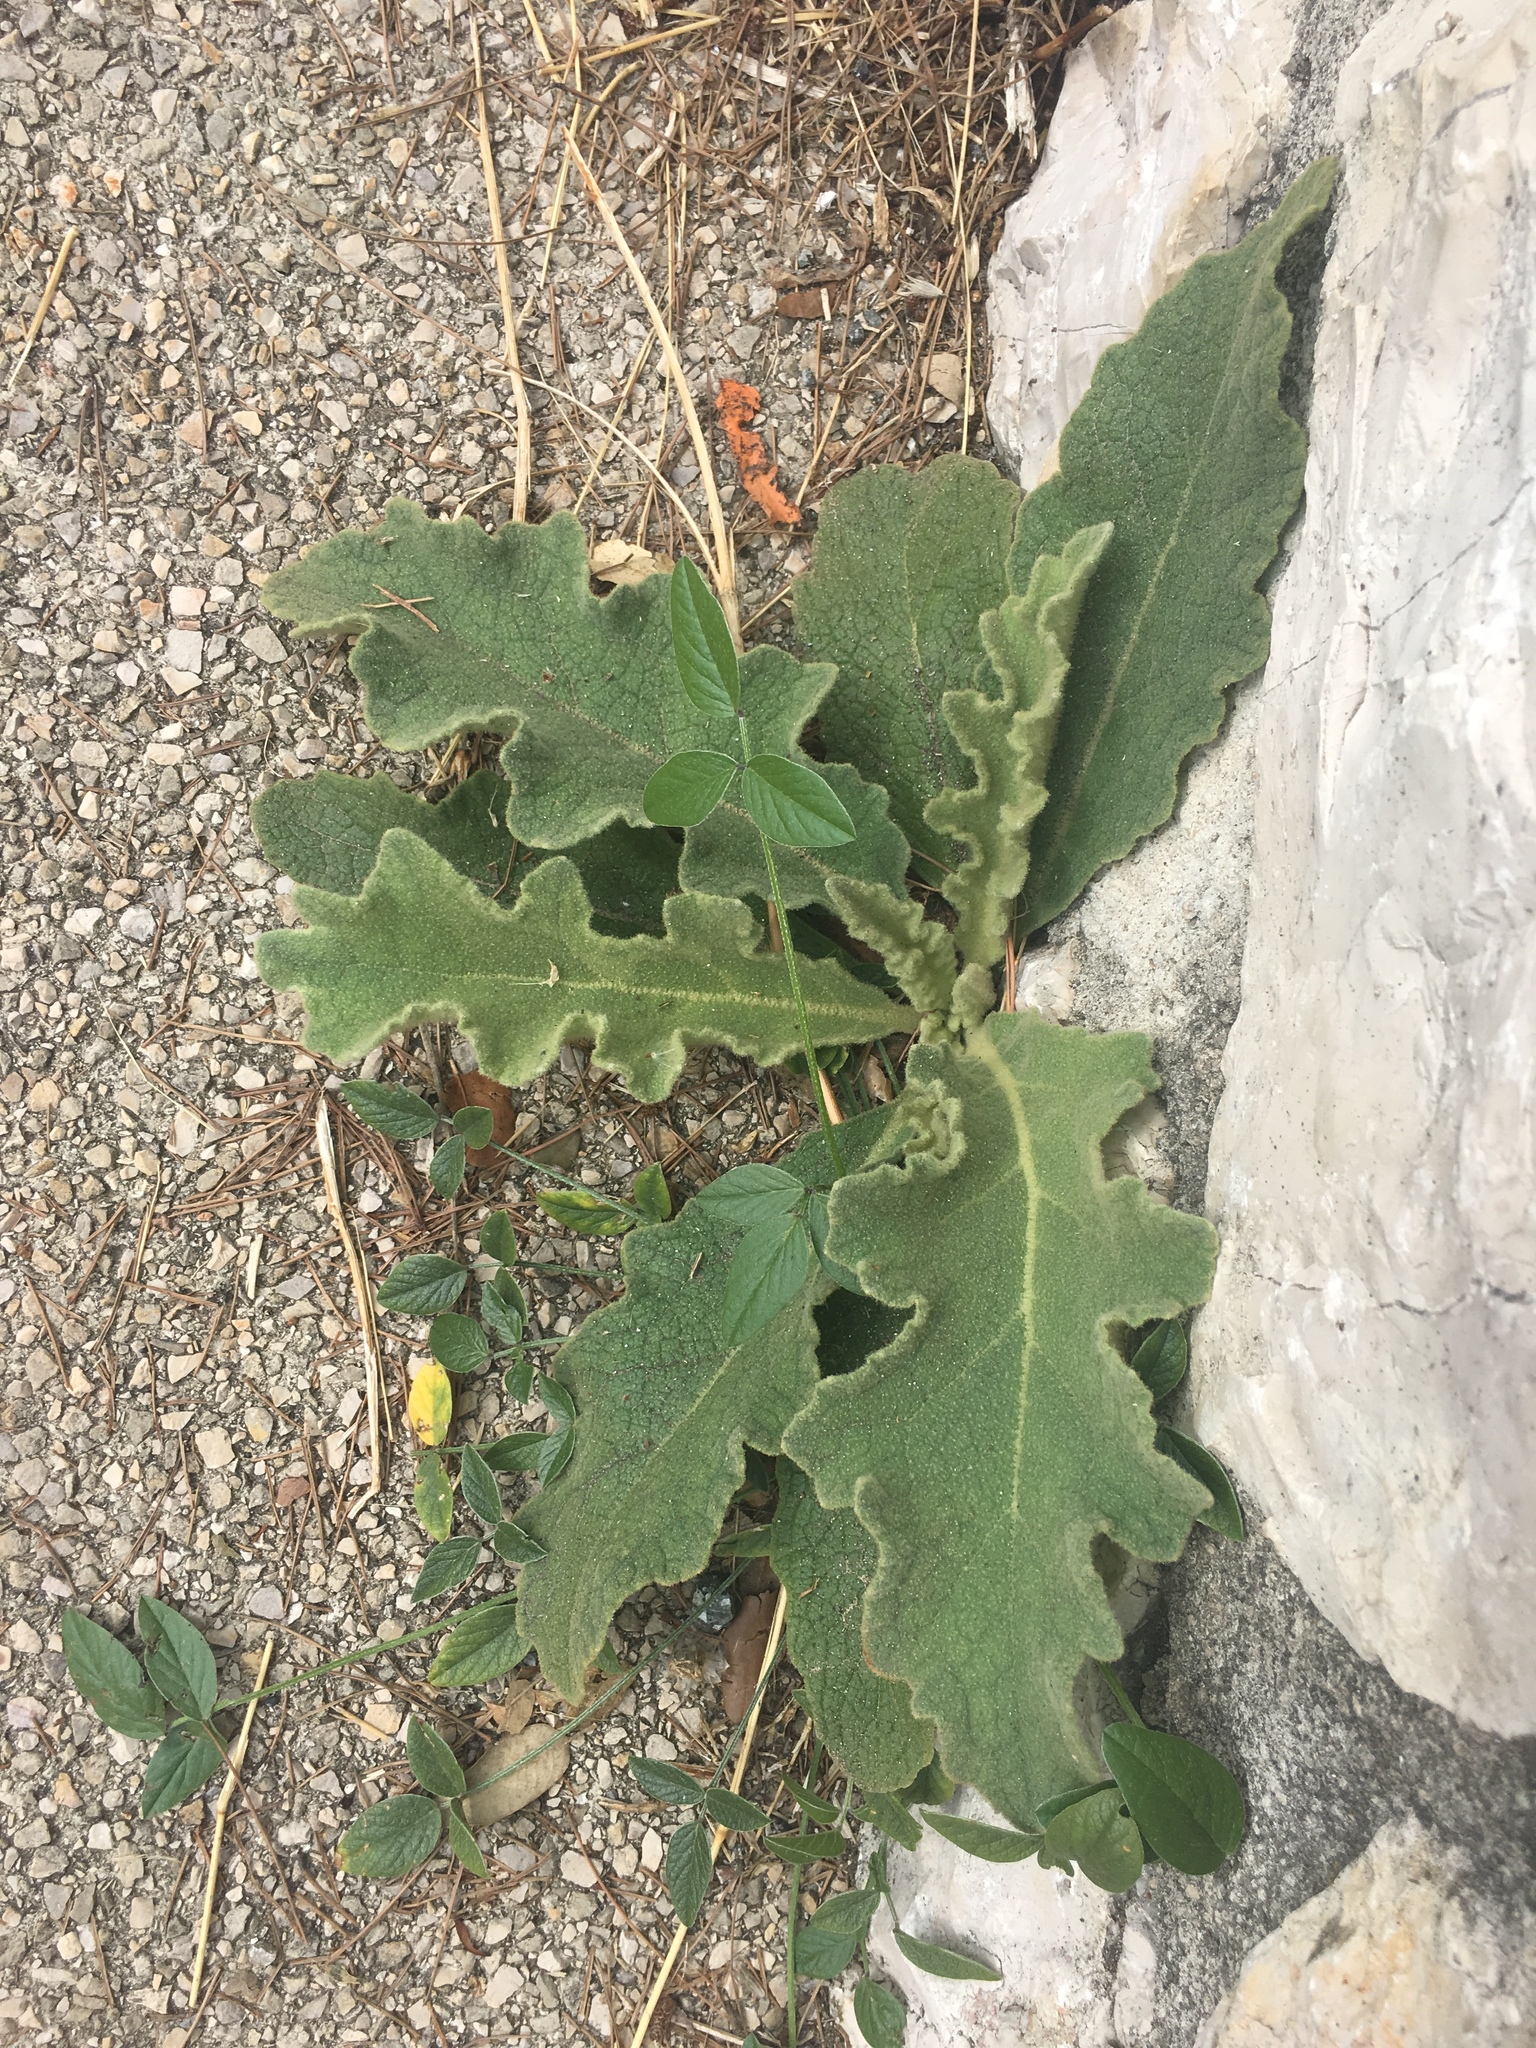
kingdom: Plantae
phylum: Tracheophyta
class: Magnoliopsida
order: Lamiales
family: Scrophulariaceae
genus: Verbascum
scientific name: Verbascum sinuatum
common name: Wavyleaf mullein
